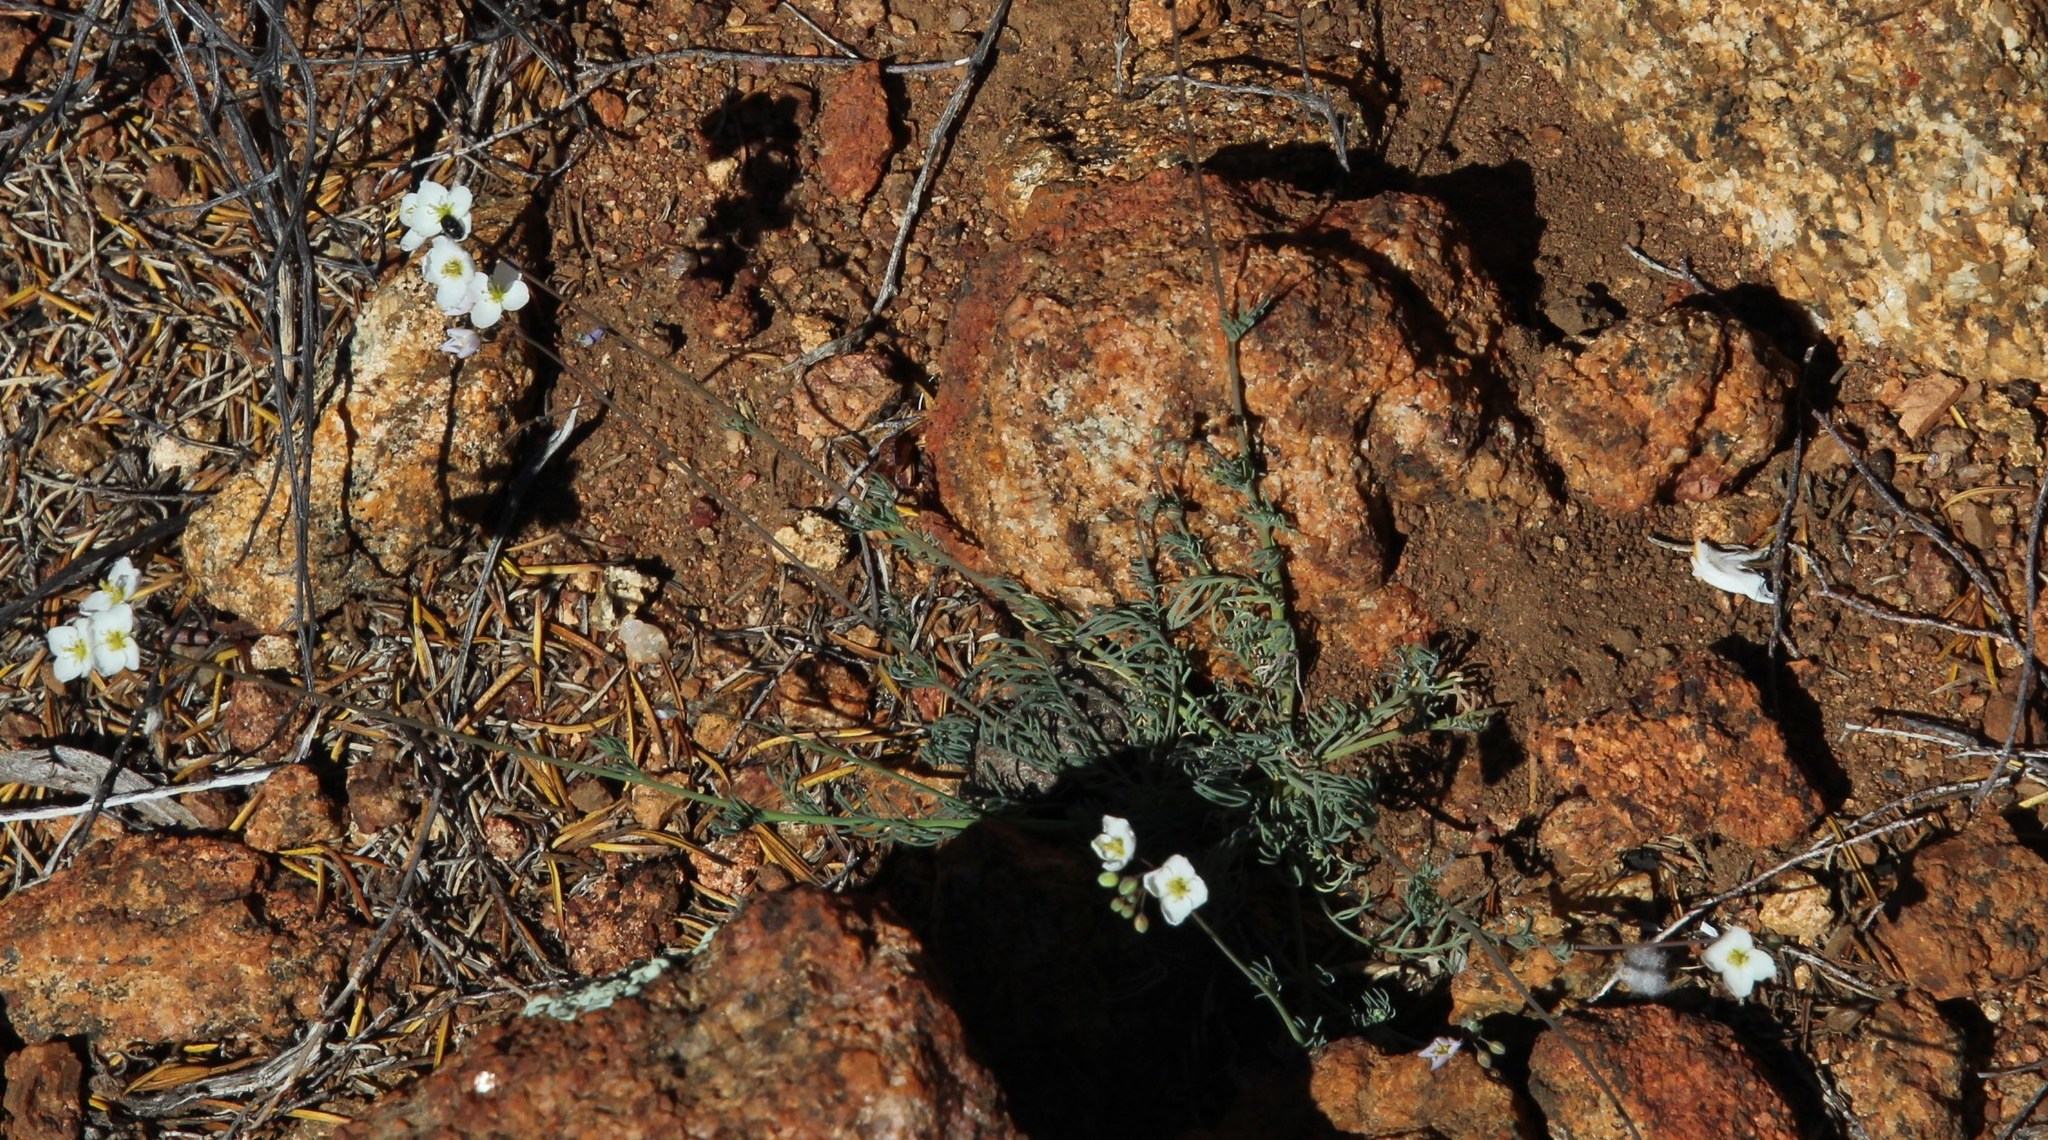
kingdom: Plantae
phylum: Tracheophyta
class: Magnoliopsida
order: Brassicales
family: Brassicaceae
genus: Heliophila
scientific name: Heliophila seselifolia
